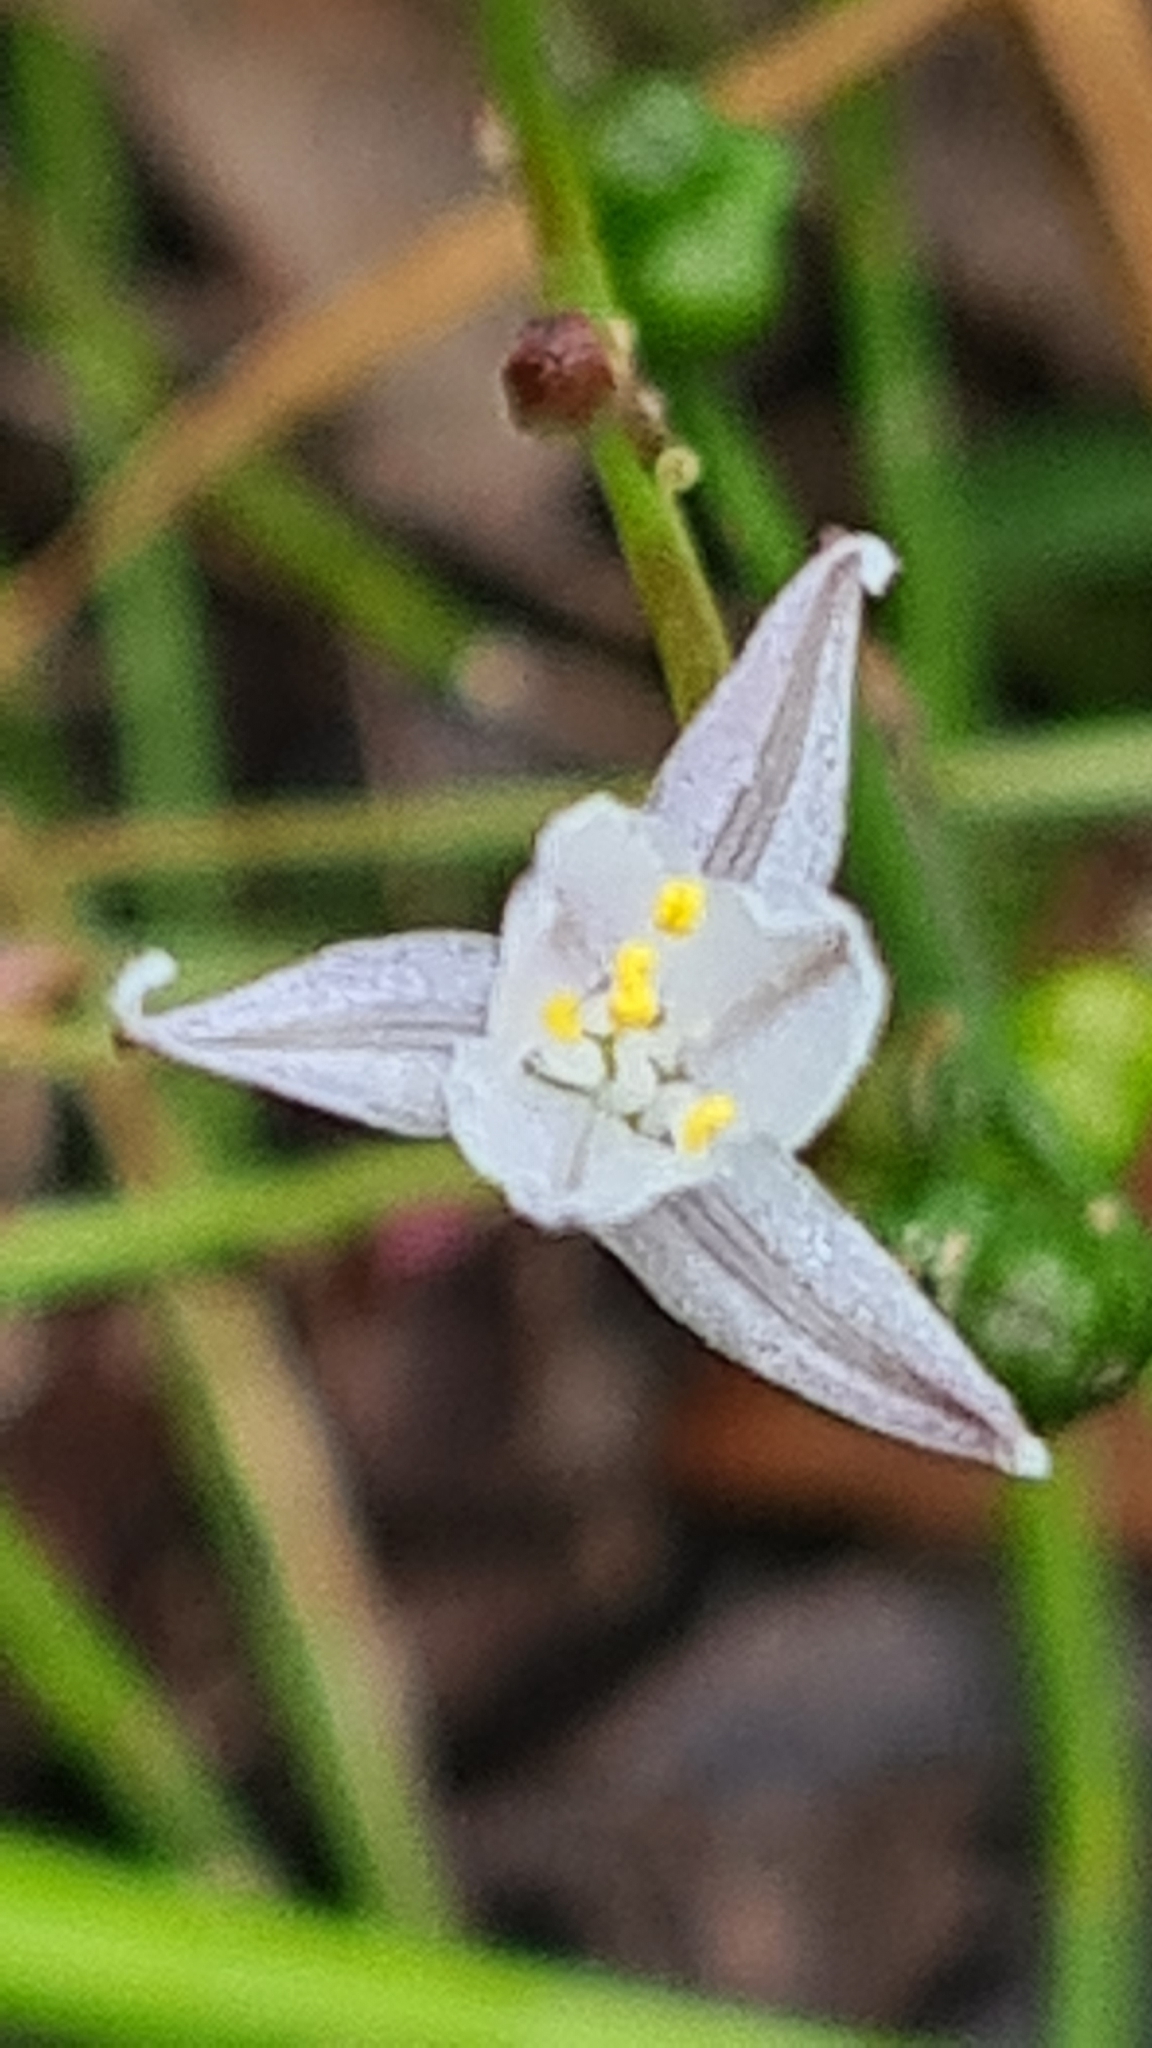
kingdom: Plantae
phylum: Tracheophyta
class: Liliopsida
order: Asparagales
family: Asphodelaceae
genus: Caesia
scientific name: Caesia parviflora
